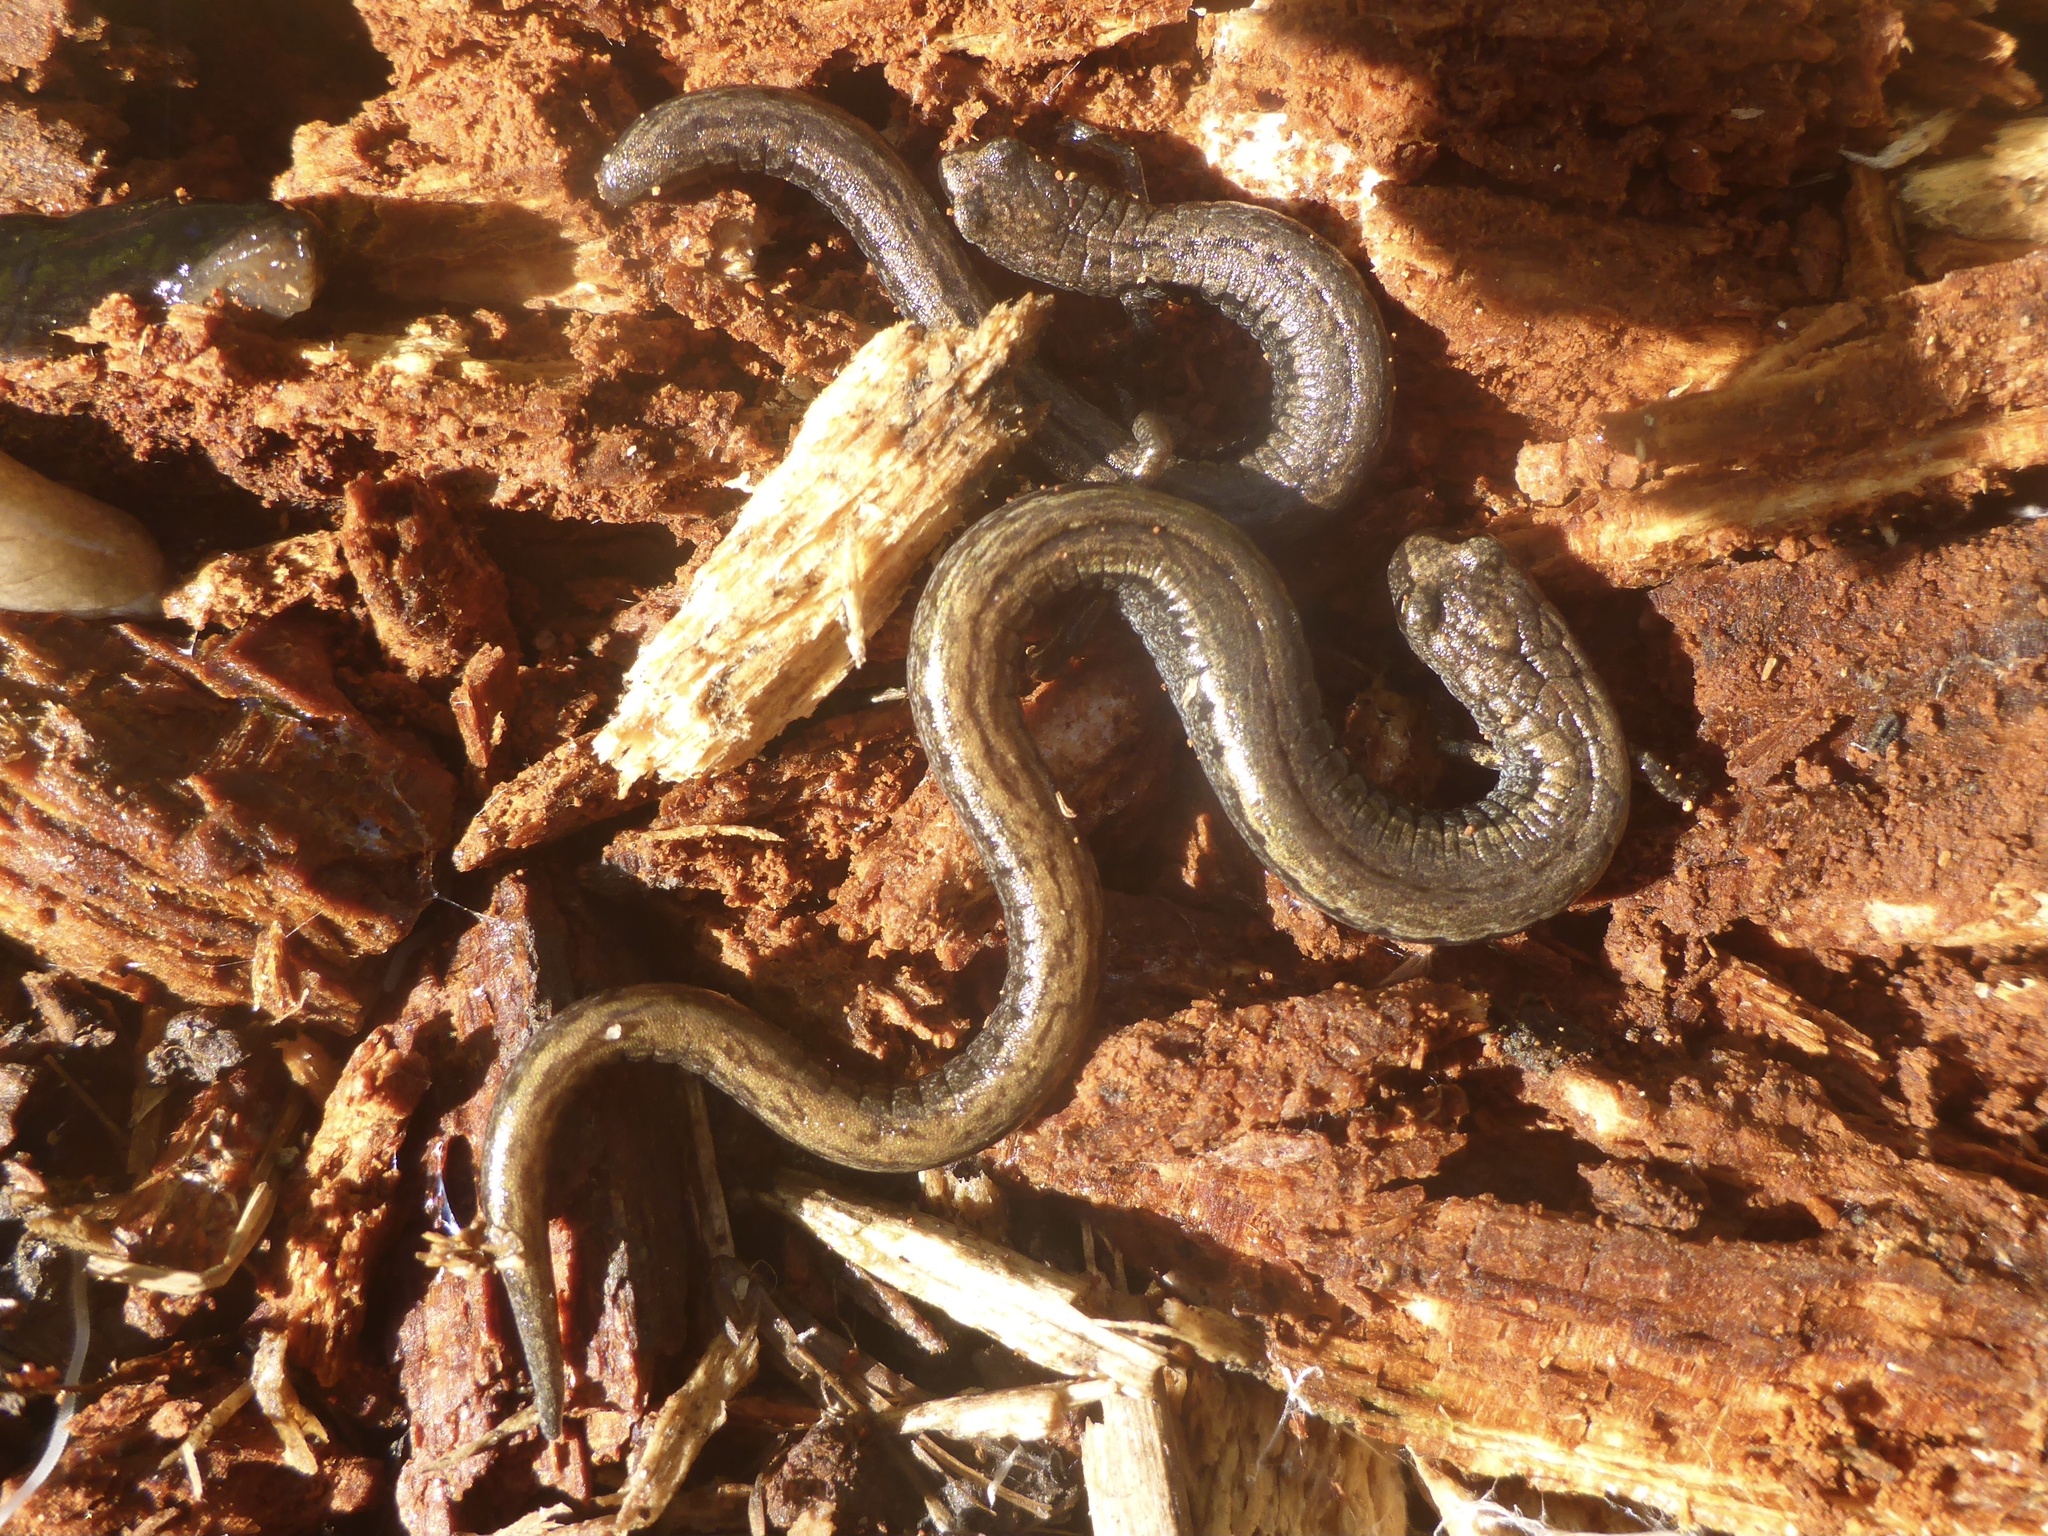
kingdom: Animalia
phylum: Chordata
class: Amphibia
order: Caudata
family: Plethodontidae
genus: Batrachoseps
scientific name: Batrachoseps attenuatus
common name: California slender salamander
